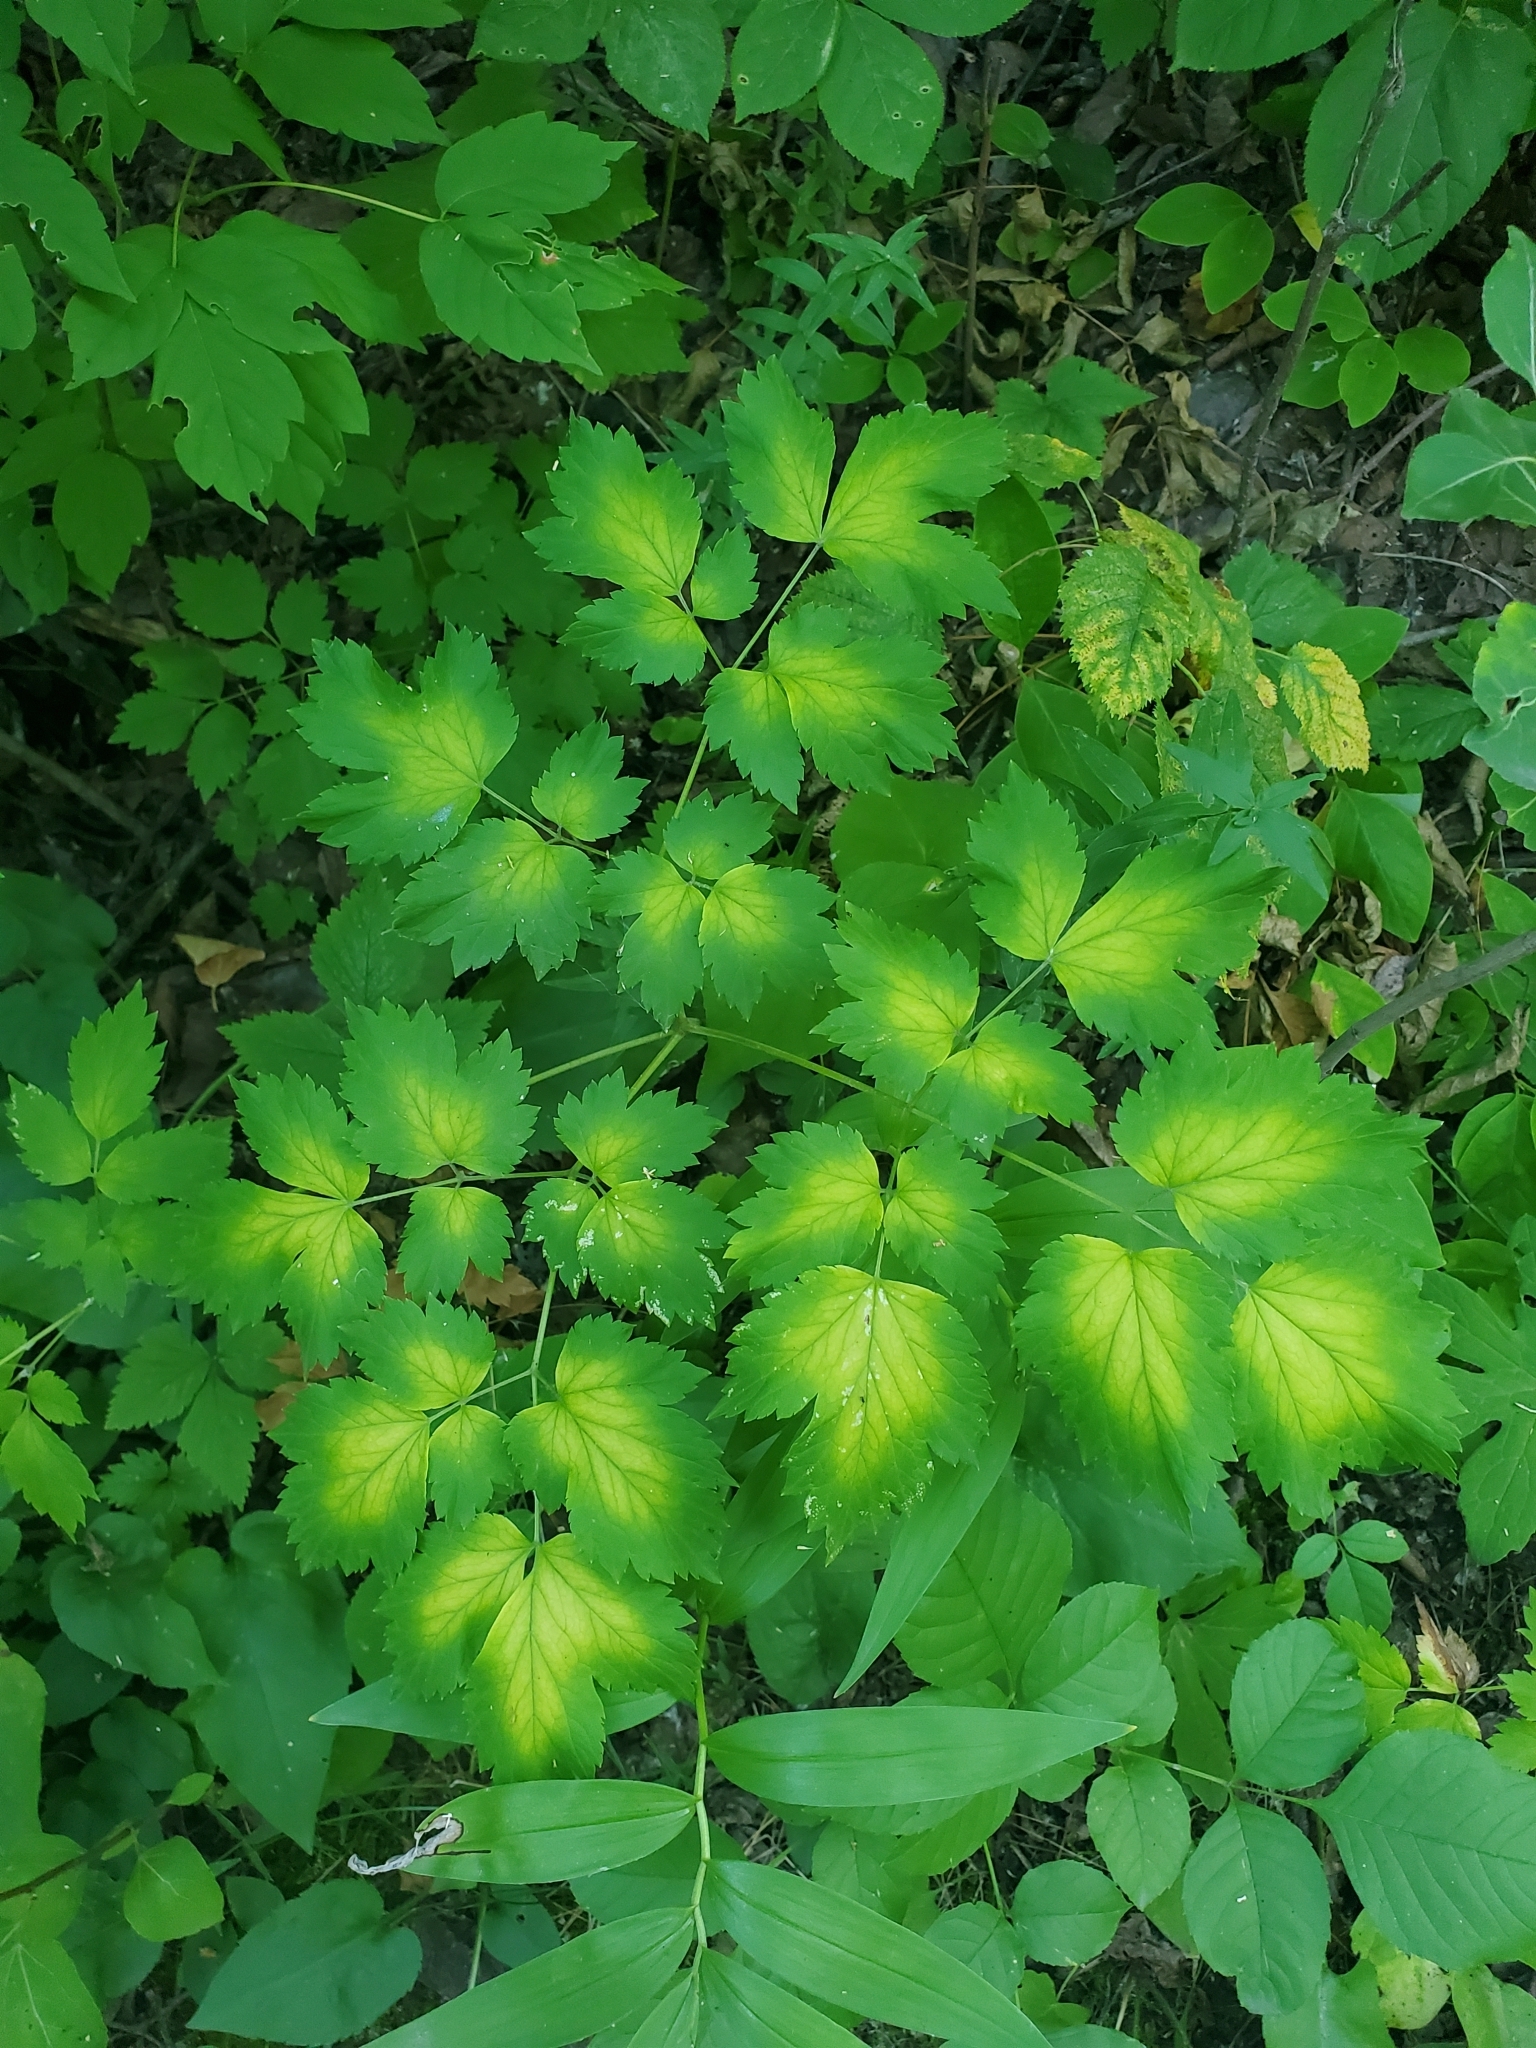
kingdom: Plantae
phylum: Tracheophyta
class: Magnoliopsida
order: Ranunculales
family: Ranunculaceae
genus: Actaea
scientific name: Actaea rubra
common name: Red baneberry
